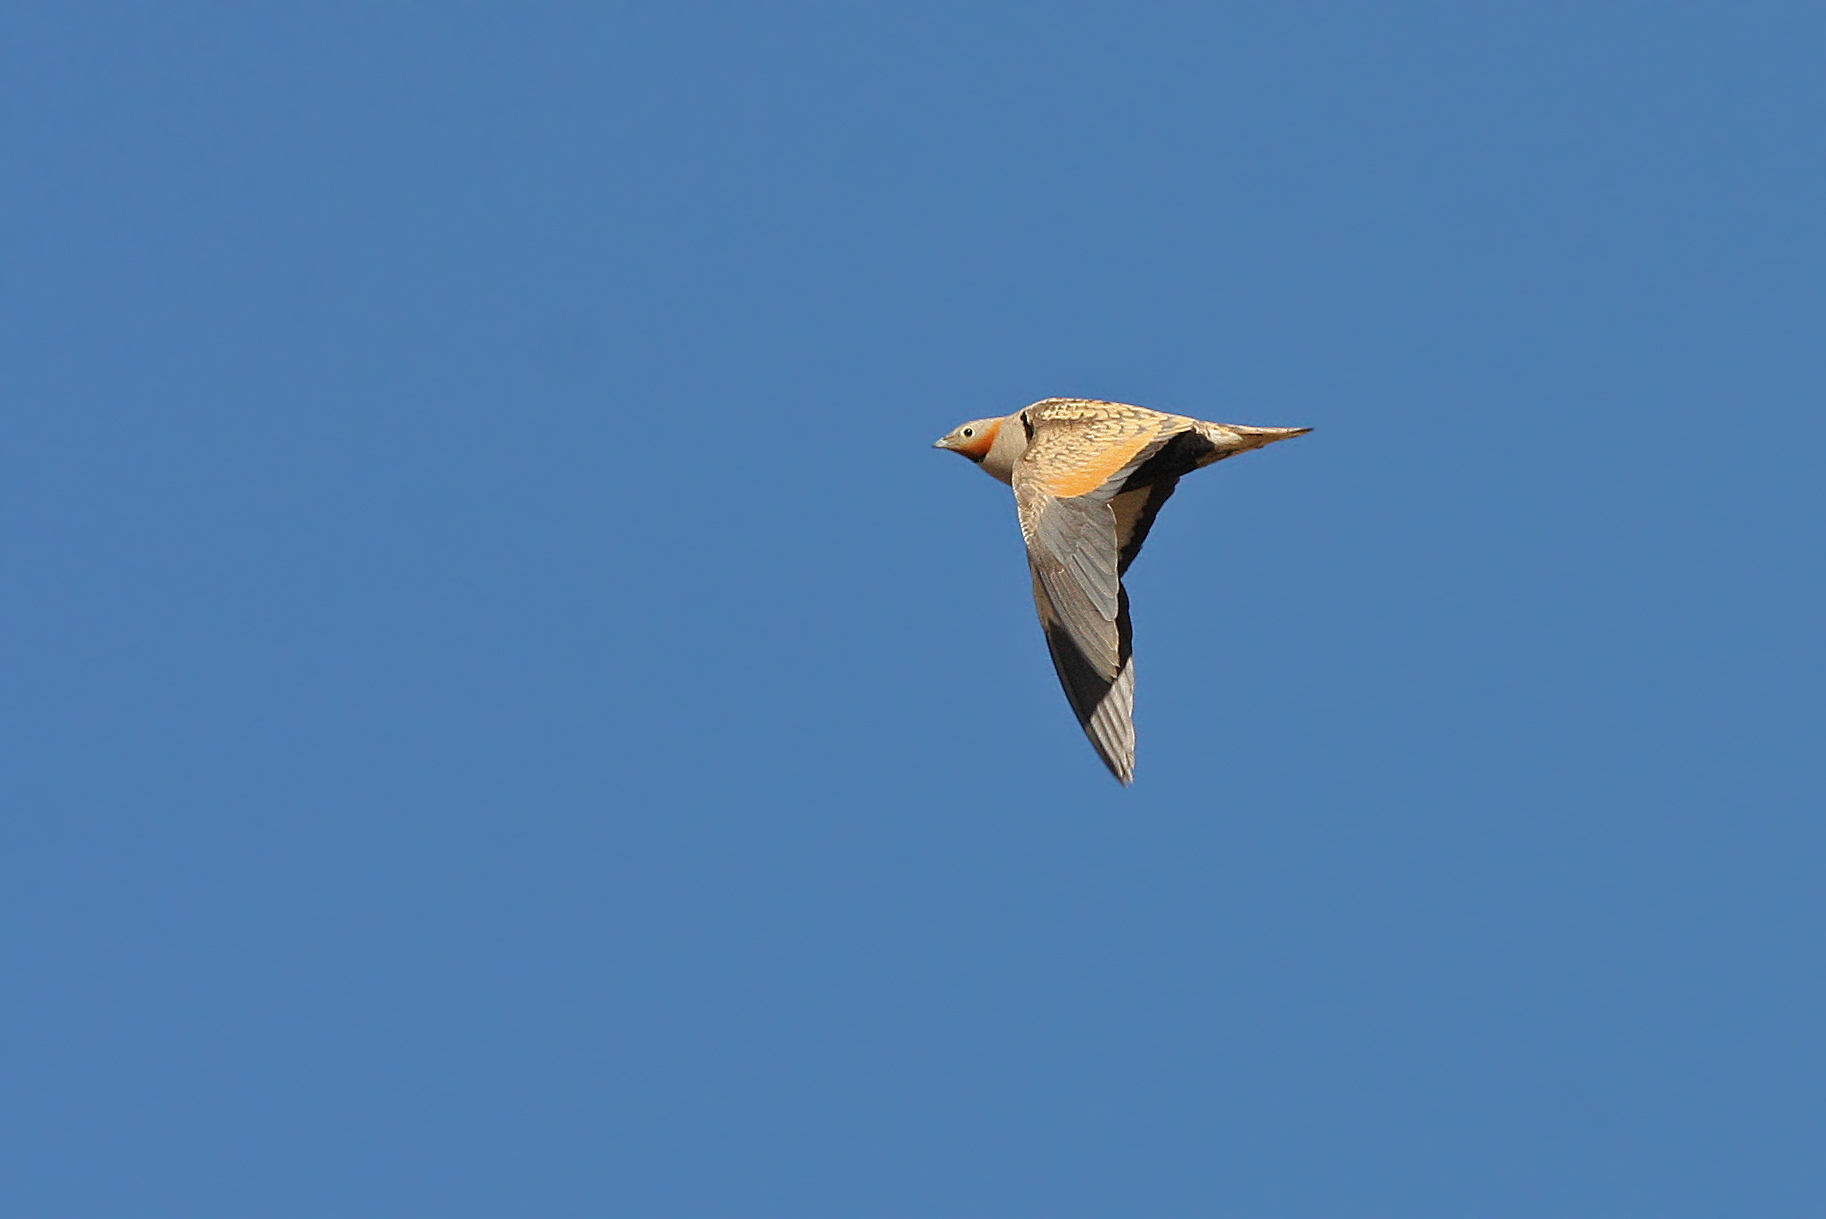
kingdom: Animalia
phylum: Chordata
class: Aves
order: Pteroclidiformes
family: Pteroclididae
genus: Pterocles
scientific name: Pterocles orientalis
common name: Black-bellied sandgrouse
